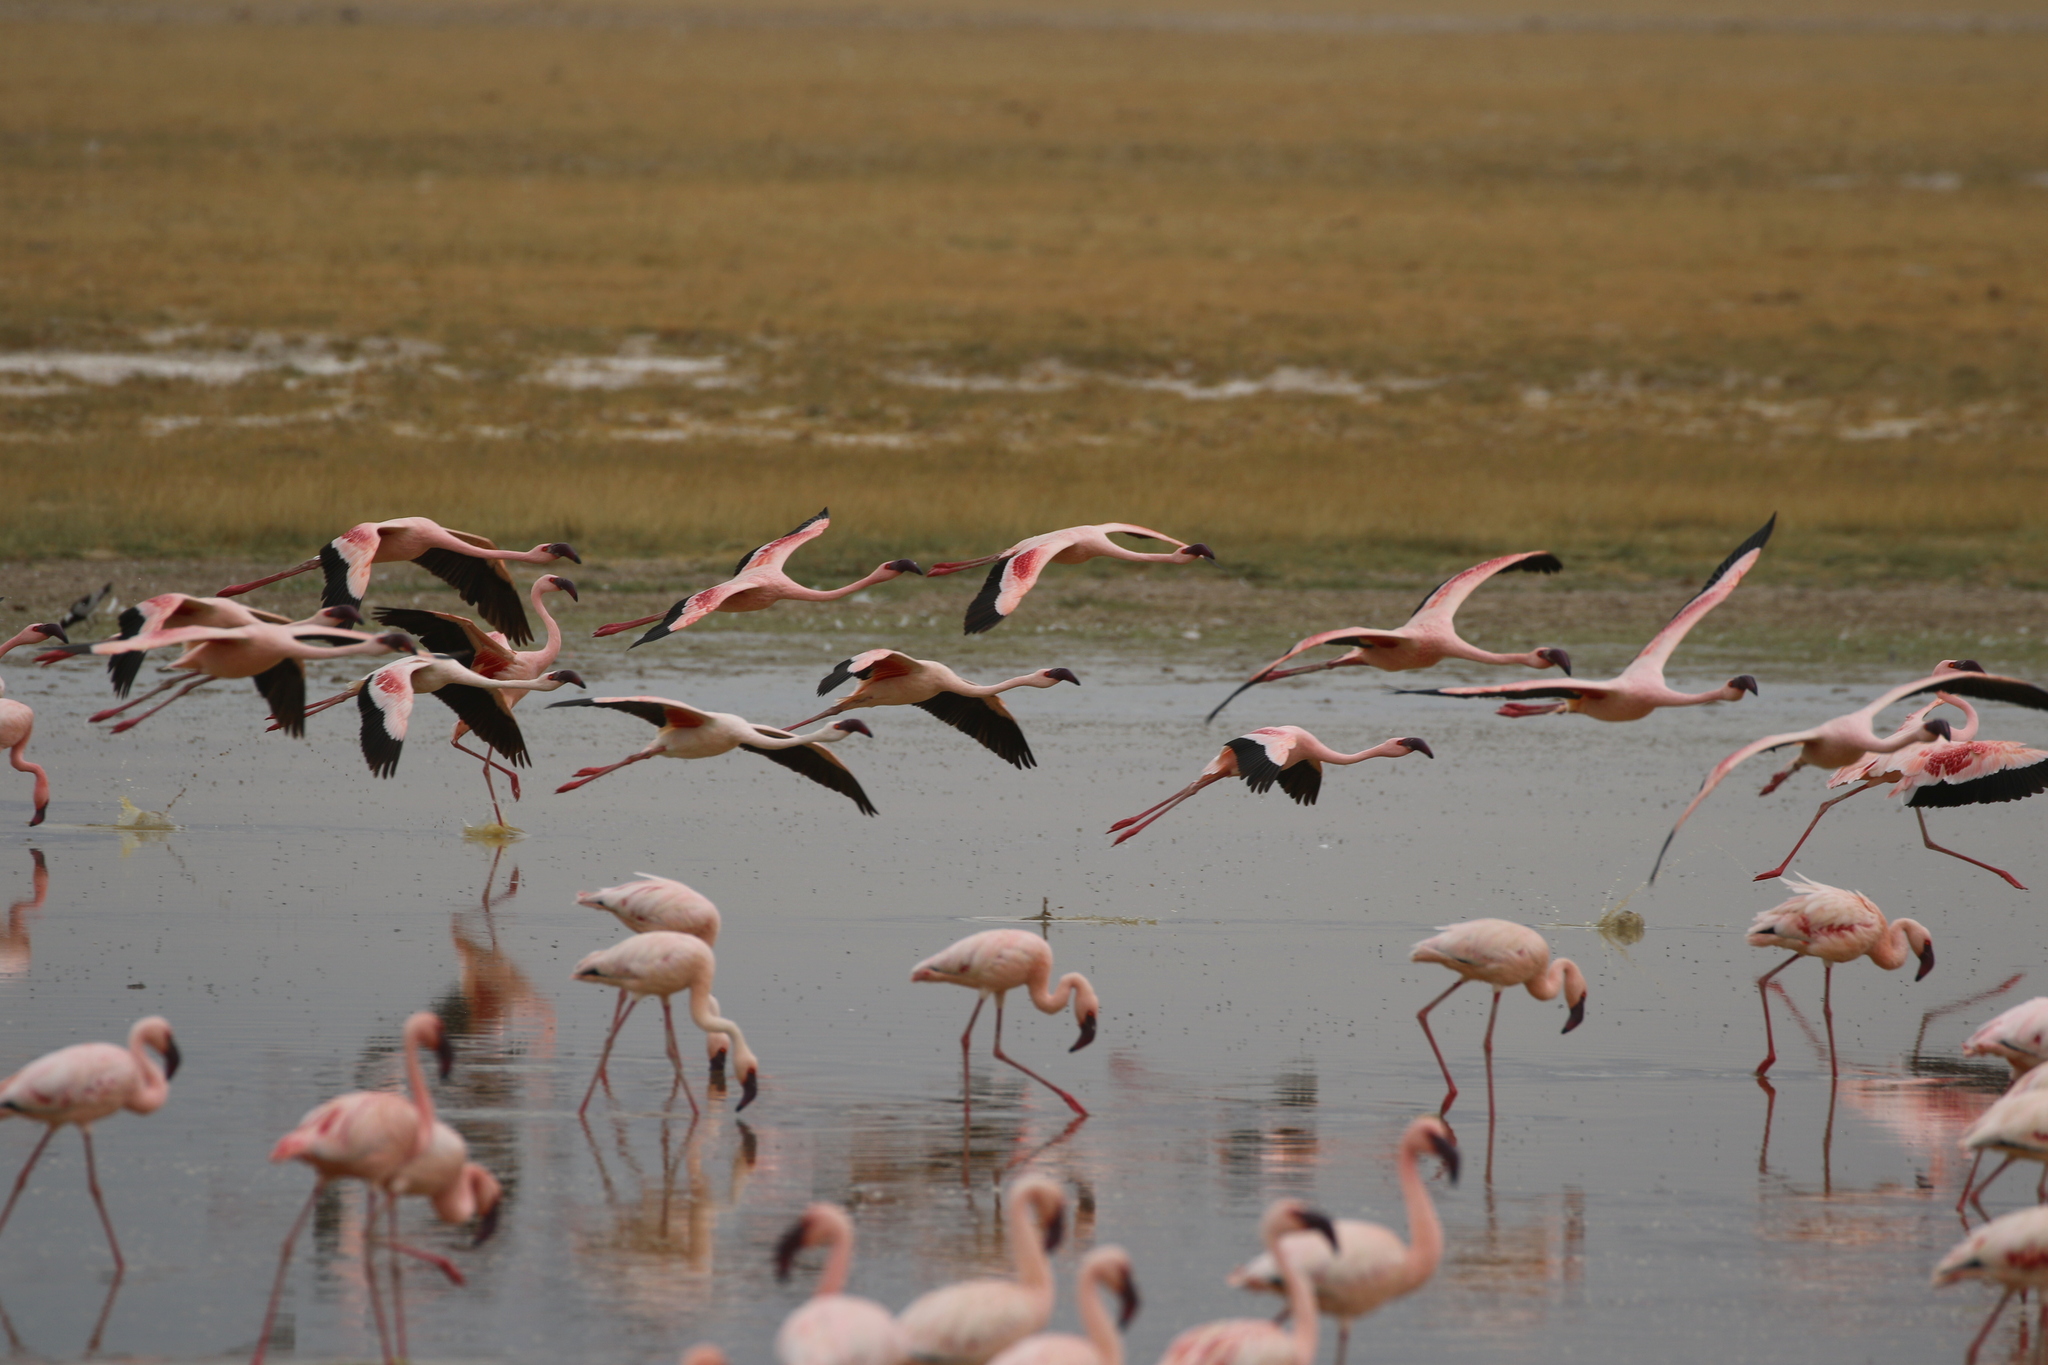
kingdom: Animalia
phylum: Chordata
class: Aves
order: Phoenicopteriformes
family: Phoenicopteridae
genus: Phoeniconaias
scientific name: Phoeniconaias minor
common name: Lesser flamingo
